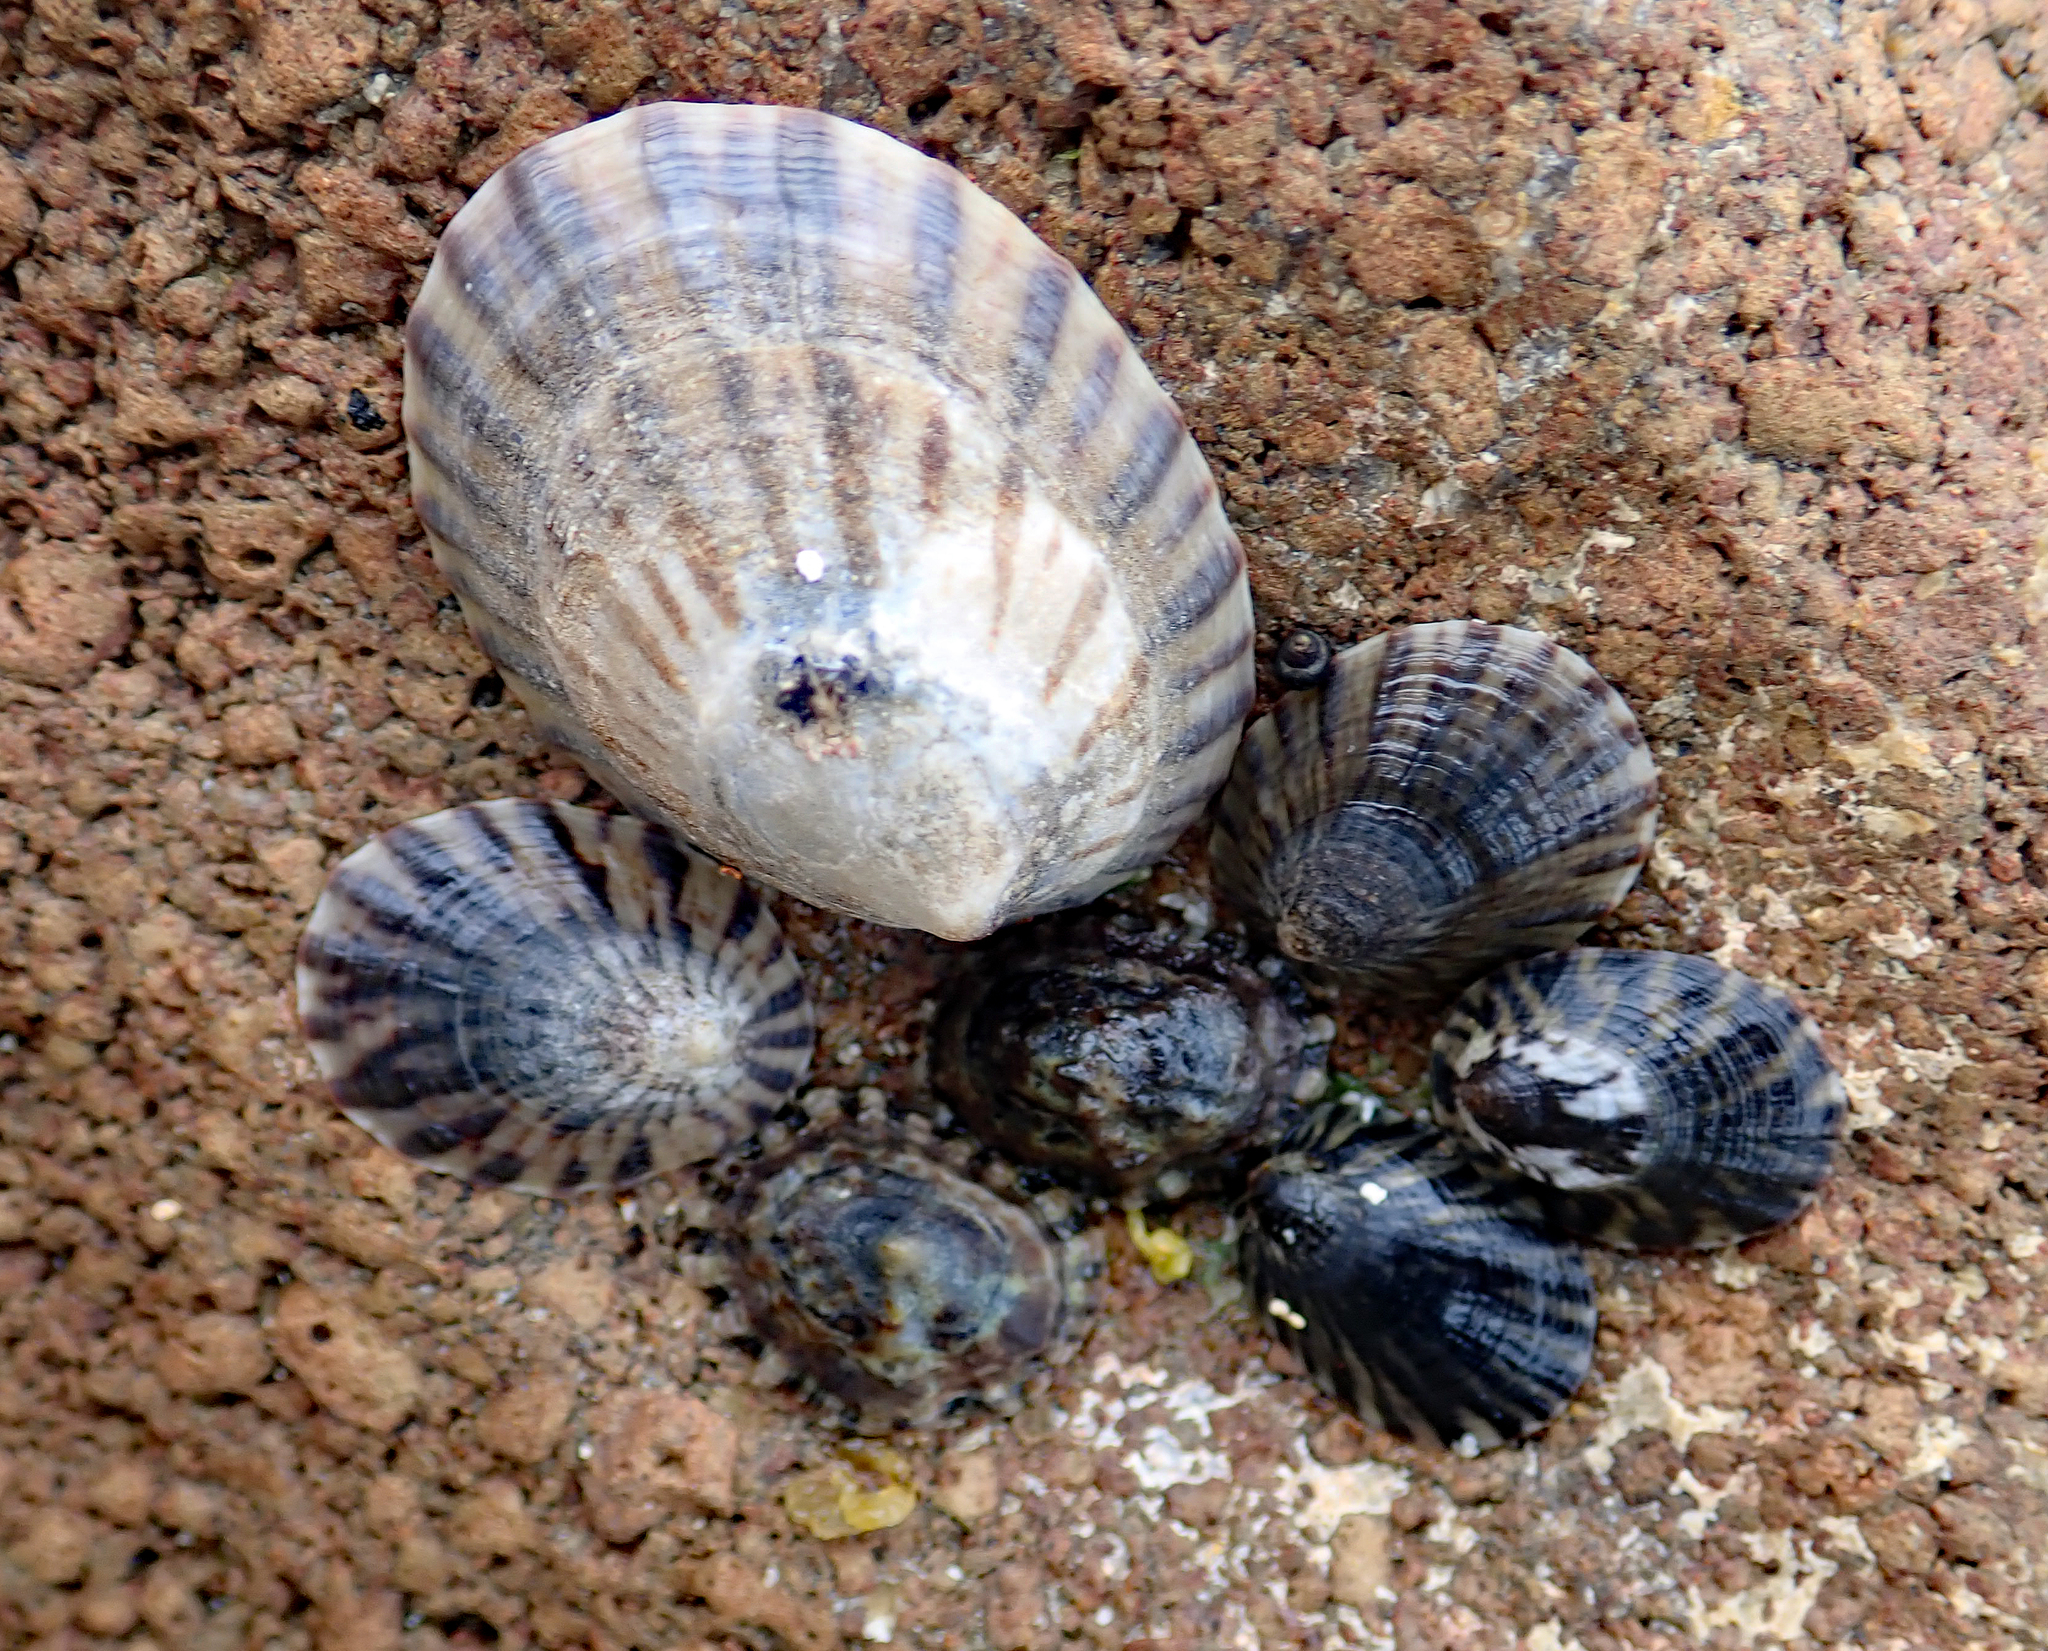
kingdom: Animalia
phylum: Mollusca
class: Gastropoda
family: Nacellidae
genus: Cellana
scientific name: Cellana oliveri
